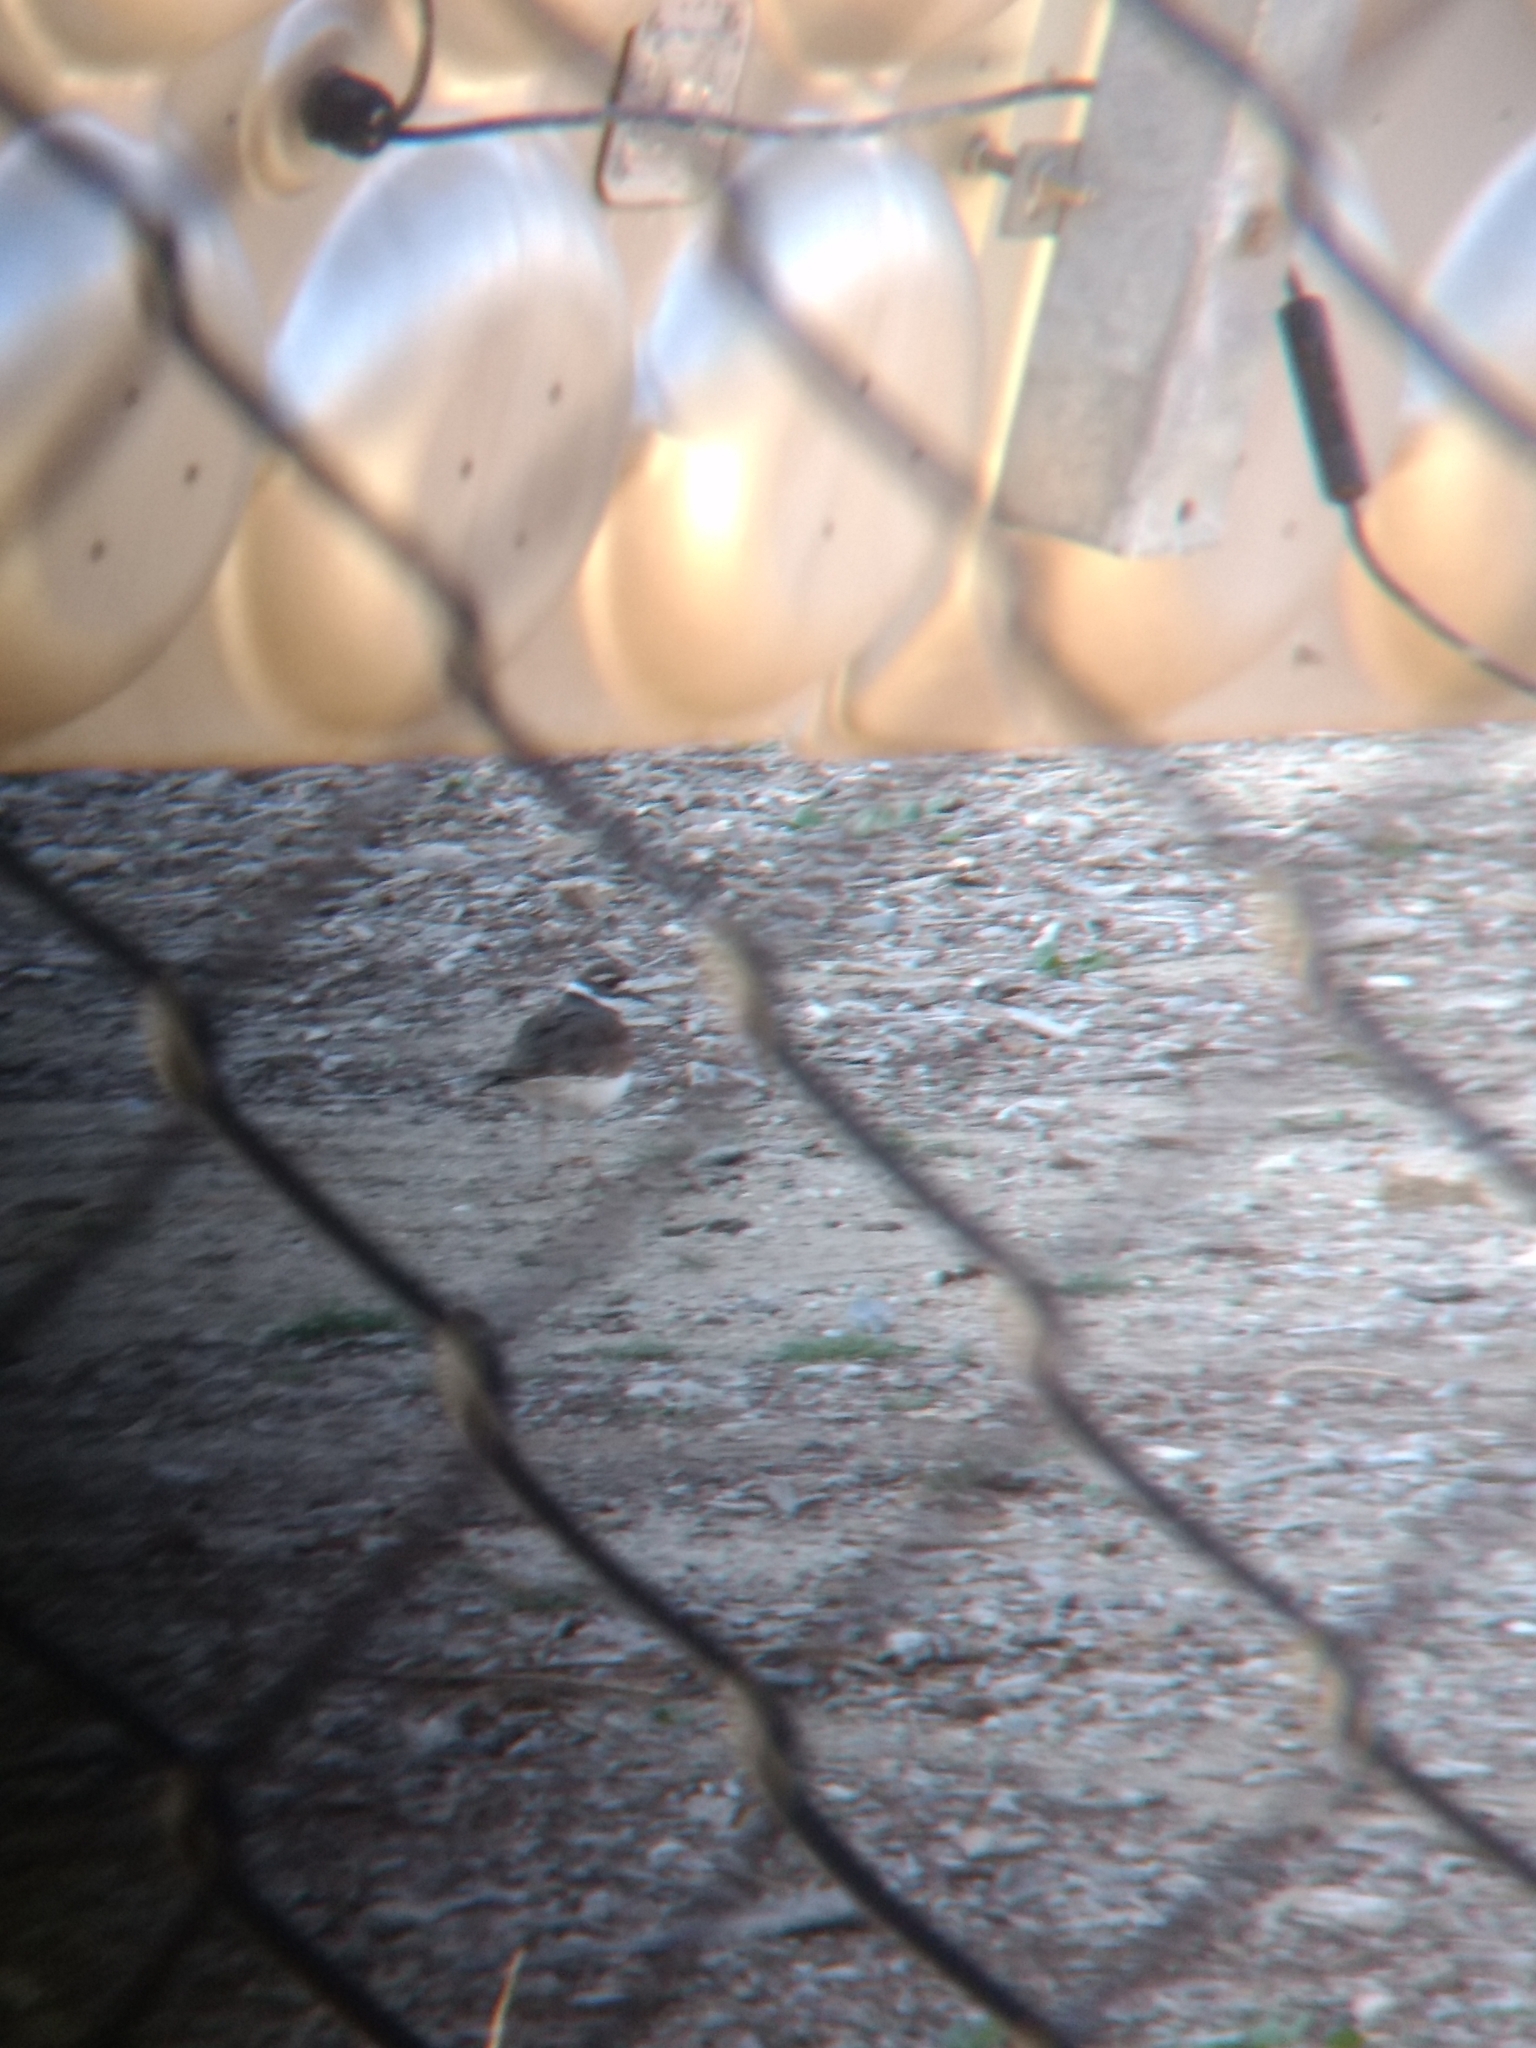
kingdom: Animalia
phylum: Chordata
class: Aves
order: Charadriiformes
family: Charadriidae
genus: Charadrius
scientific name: Charadrius vociferus
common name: Killdeer
